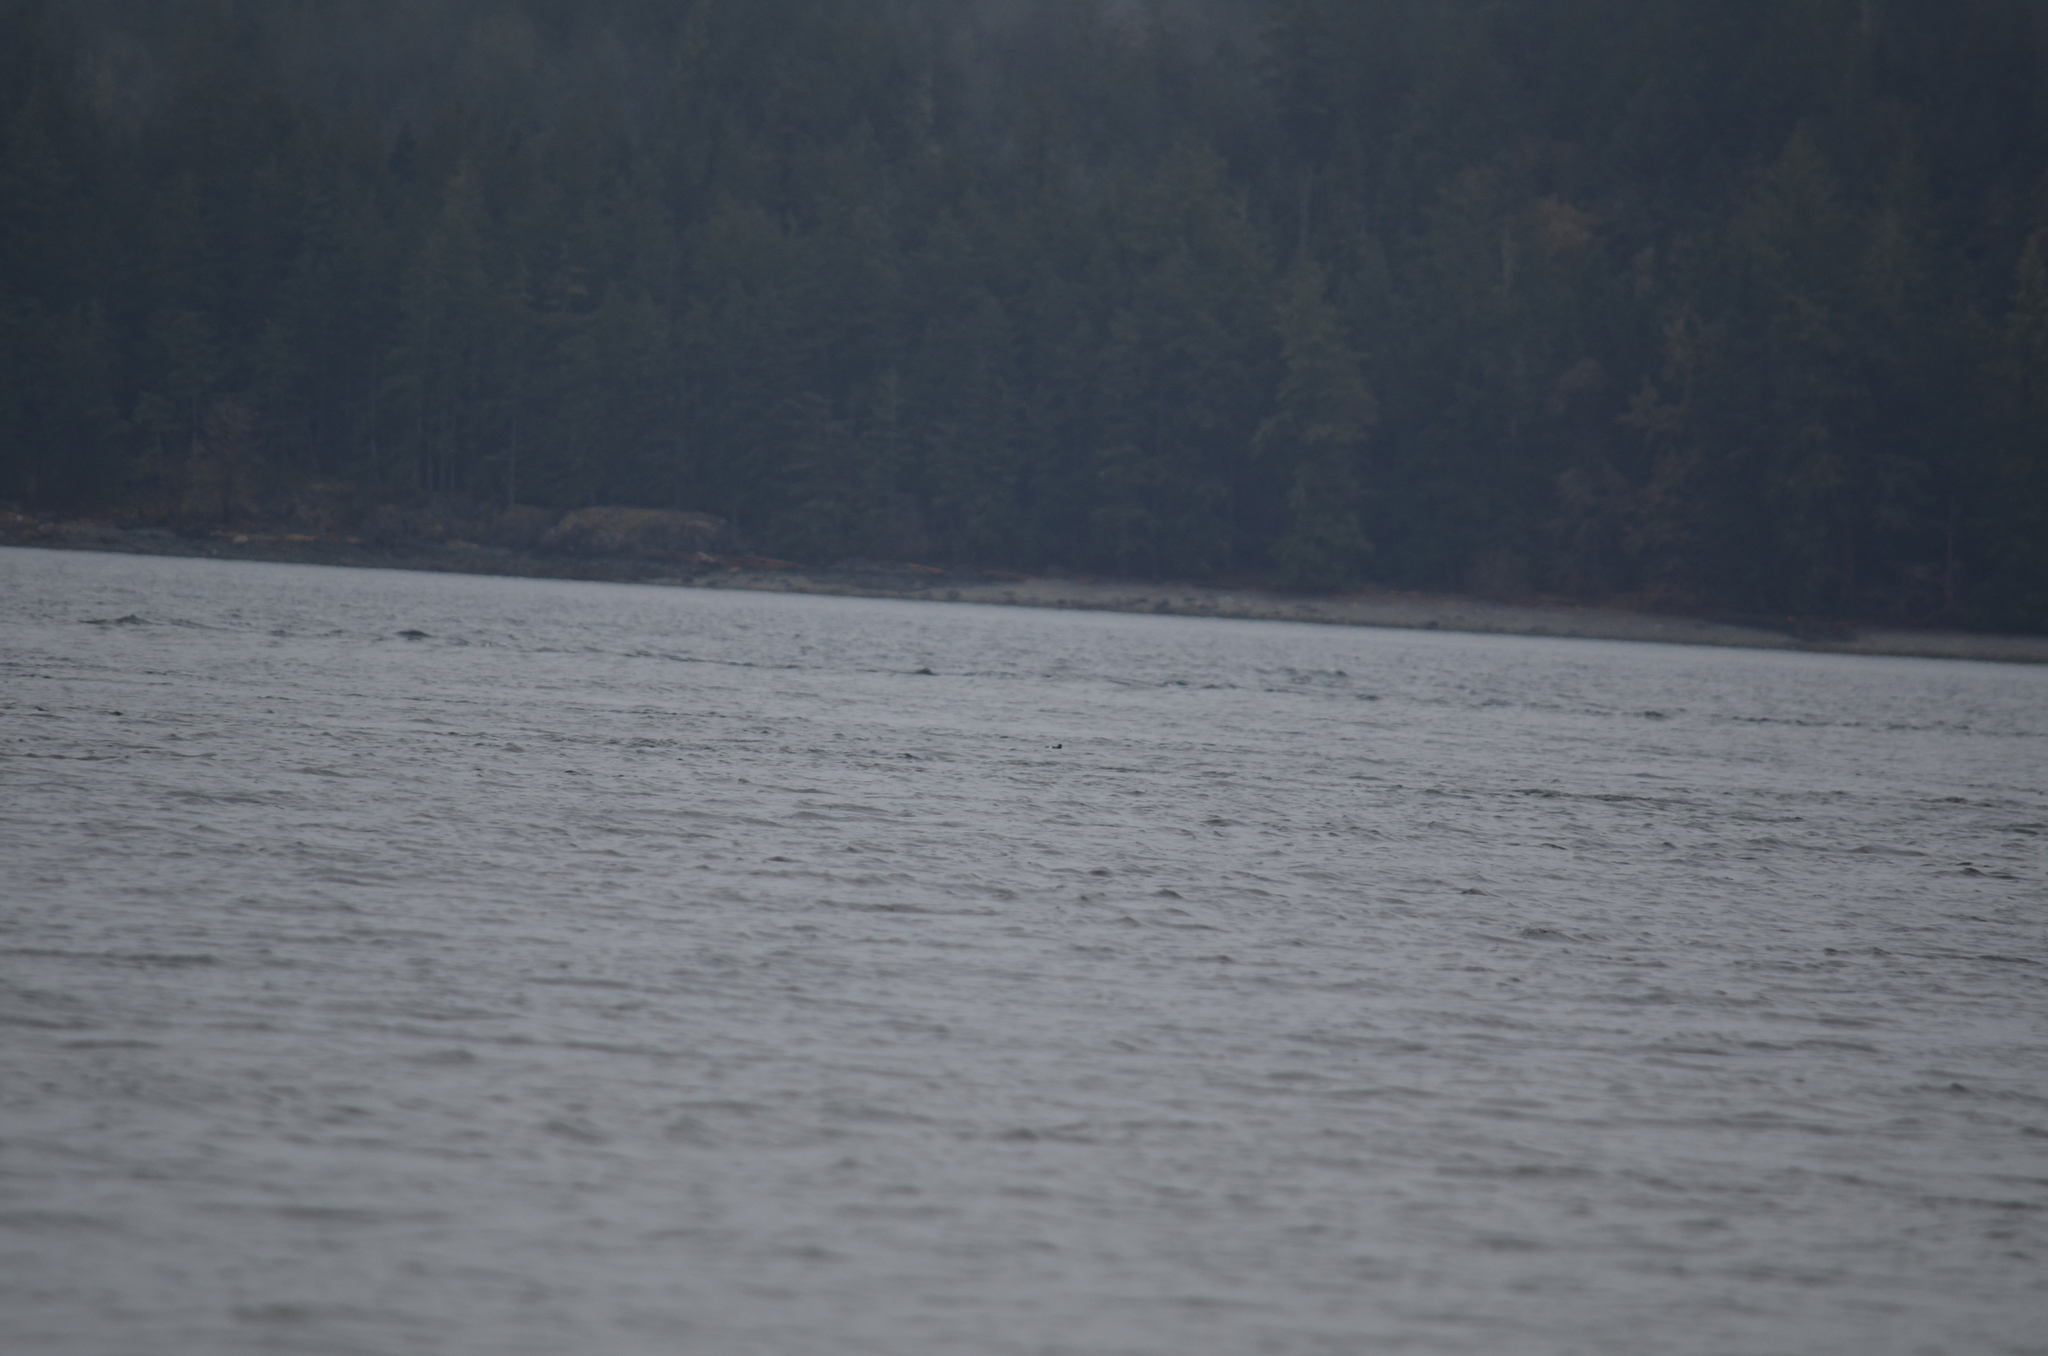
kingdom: Animalia
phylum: Chordata
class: Aves
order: Charadriiformes
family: Alcidae
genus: Cepphus
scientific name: Cepphus columba
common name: Pigeon guillemot
